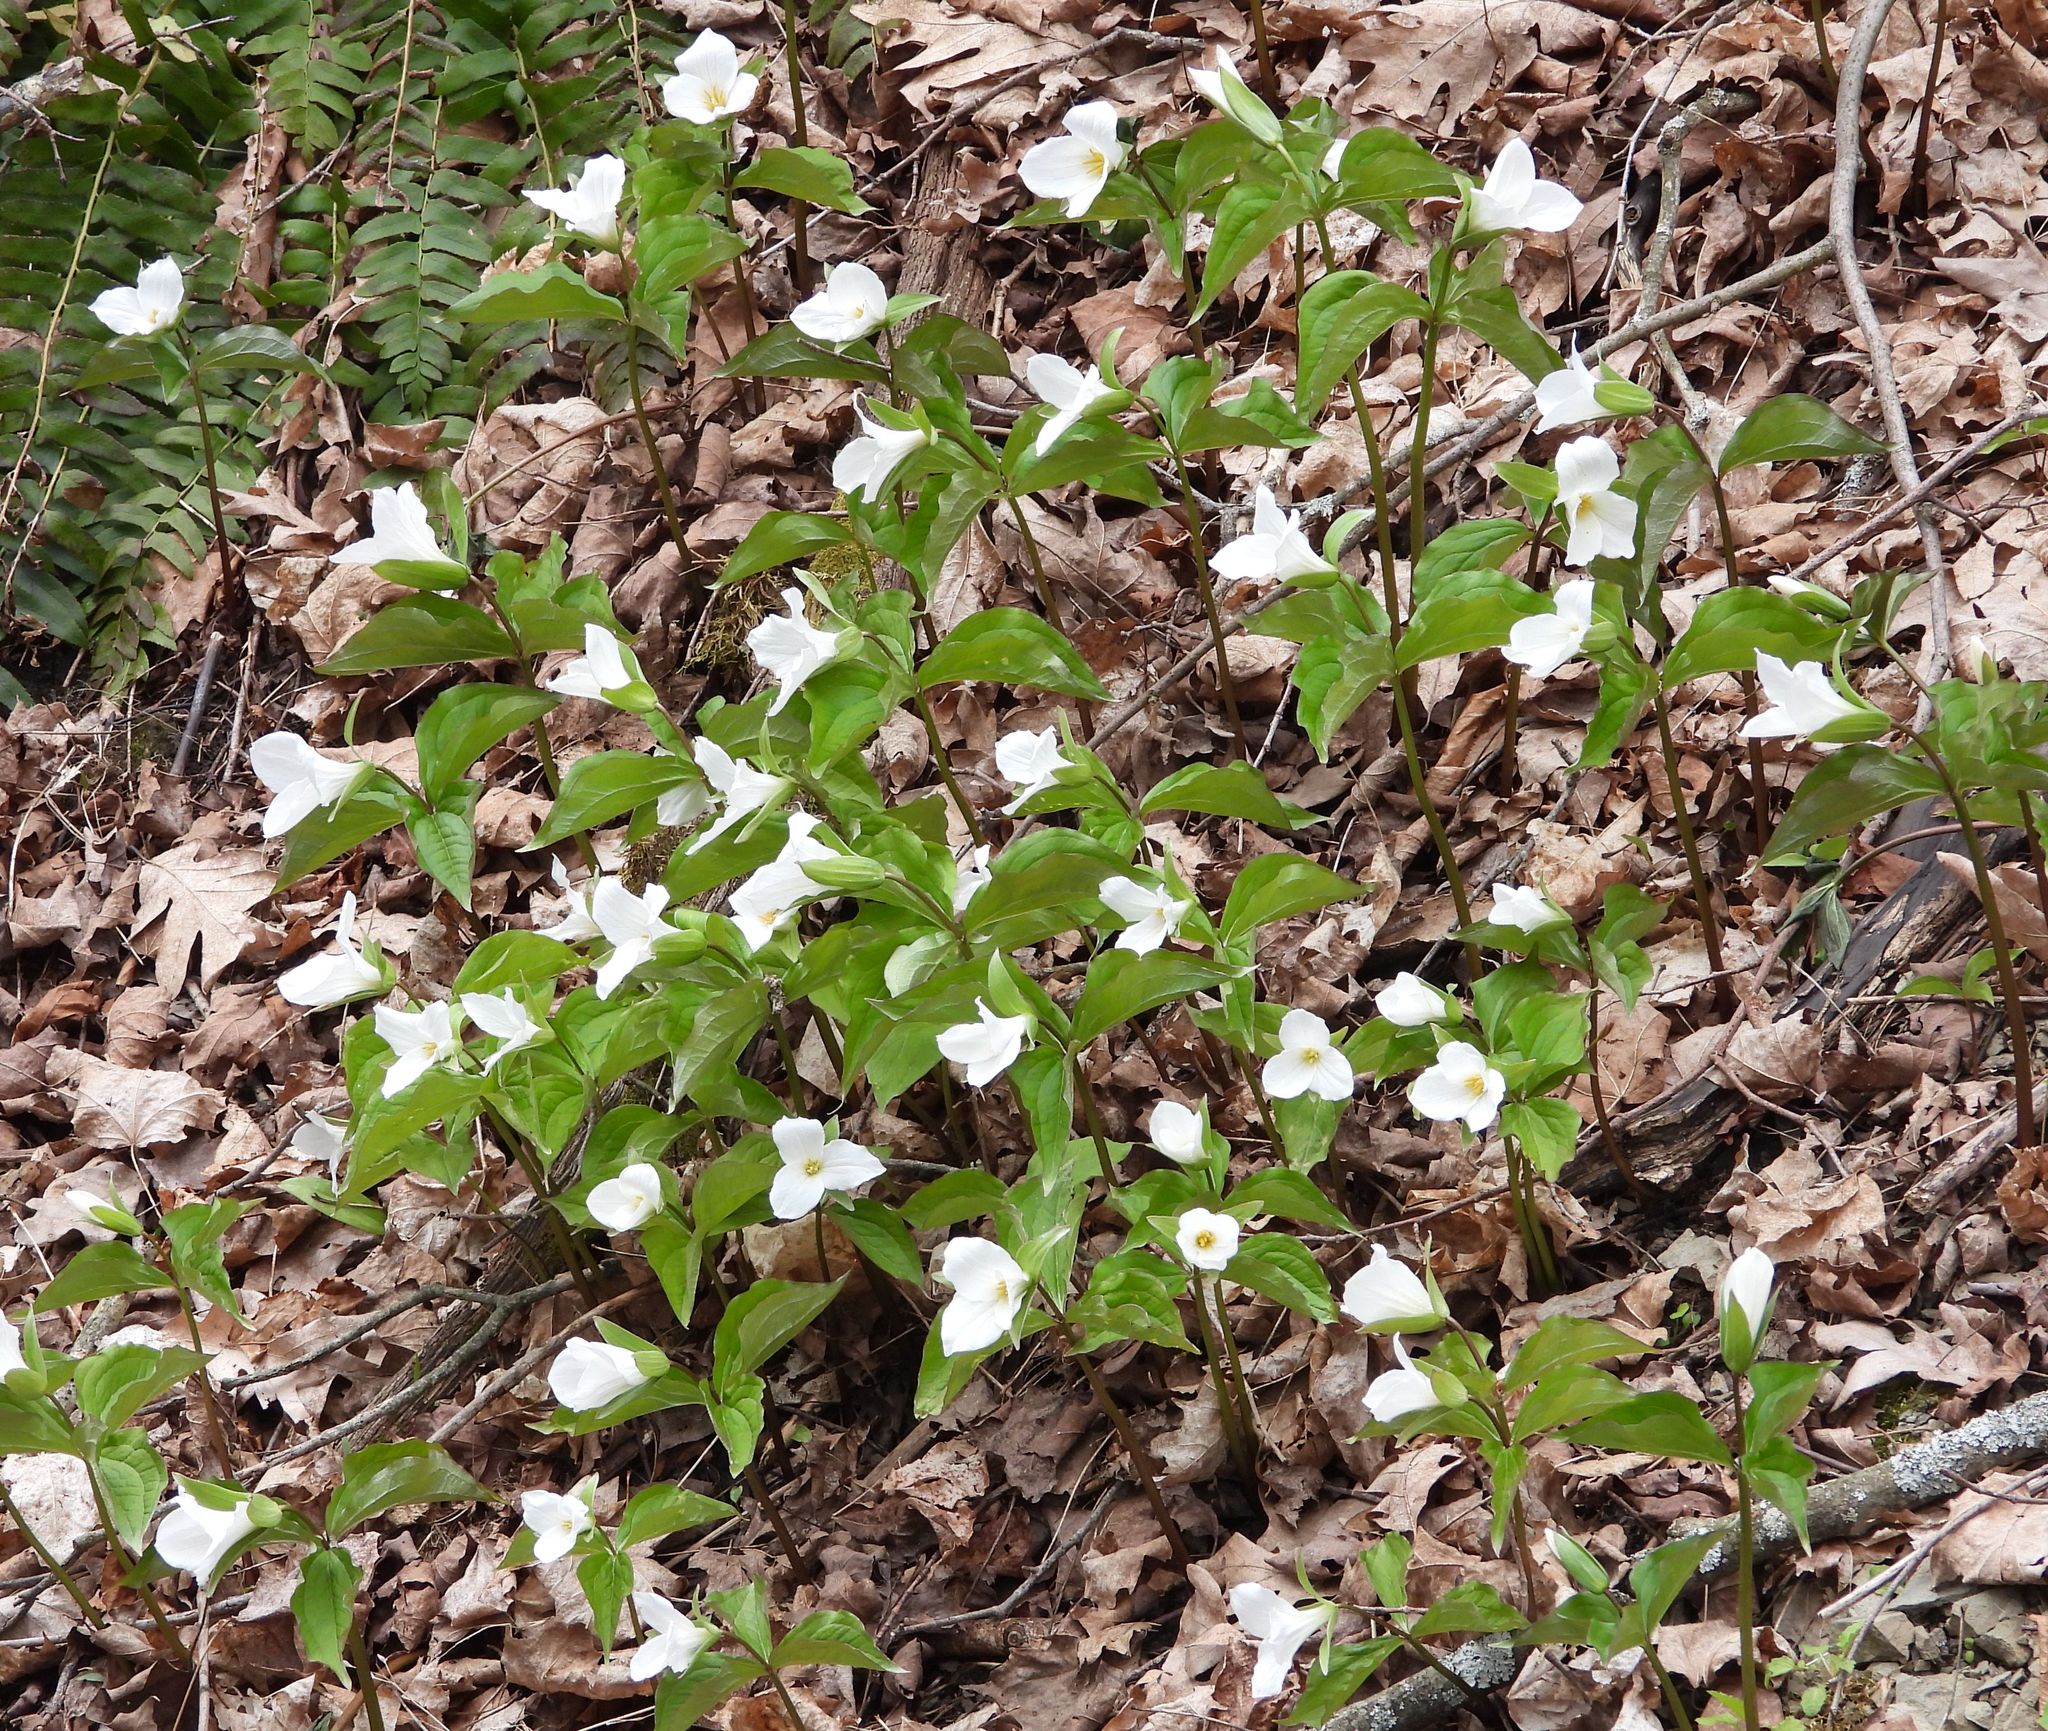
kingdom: Plantae
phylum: Tracheophyta
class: Liliopsida
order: Liliales
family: Melanthiaceae
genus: Trillium
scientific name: Trillium grandiflorum
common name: Great white trillium
